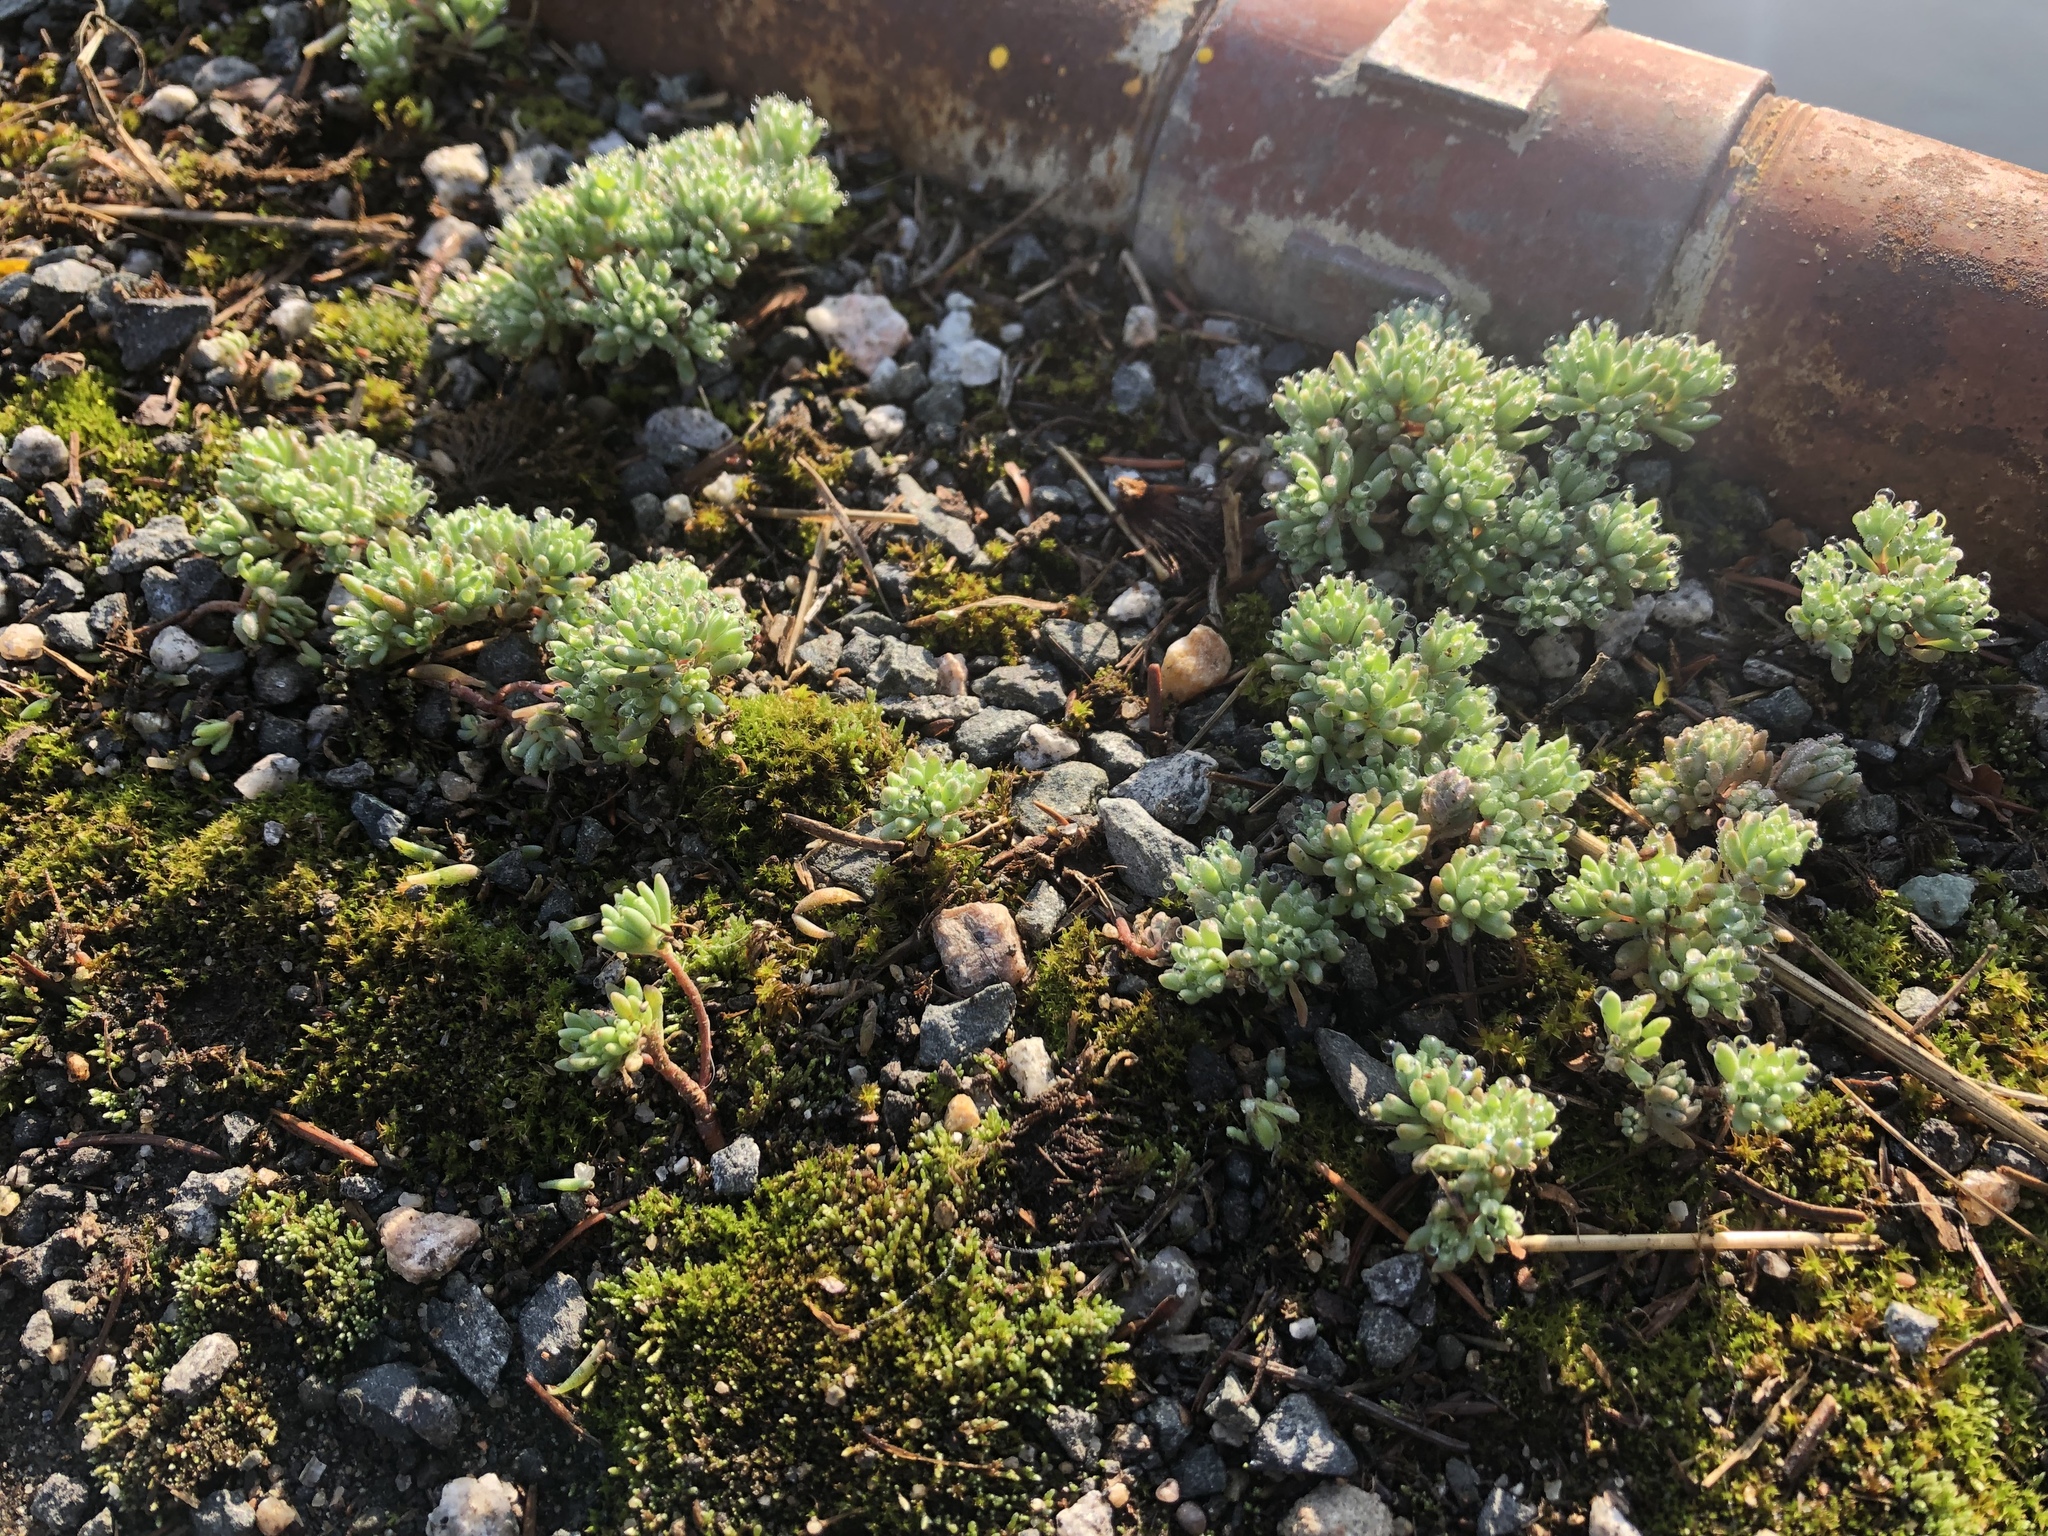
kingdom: Plantae
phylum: Tracheophyta
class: Magnoliopsida
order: Saxifragales
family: Crassulaceae
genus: Sedum
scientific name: Sedum hispanicum
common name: Spanish stonecrop
